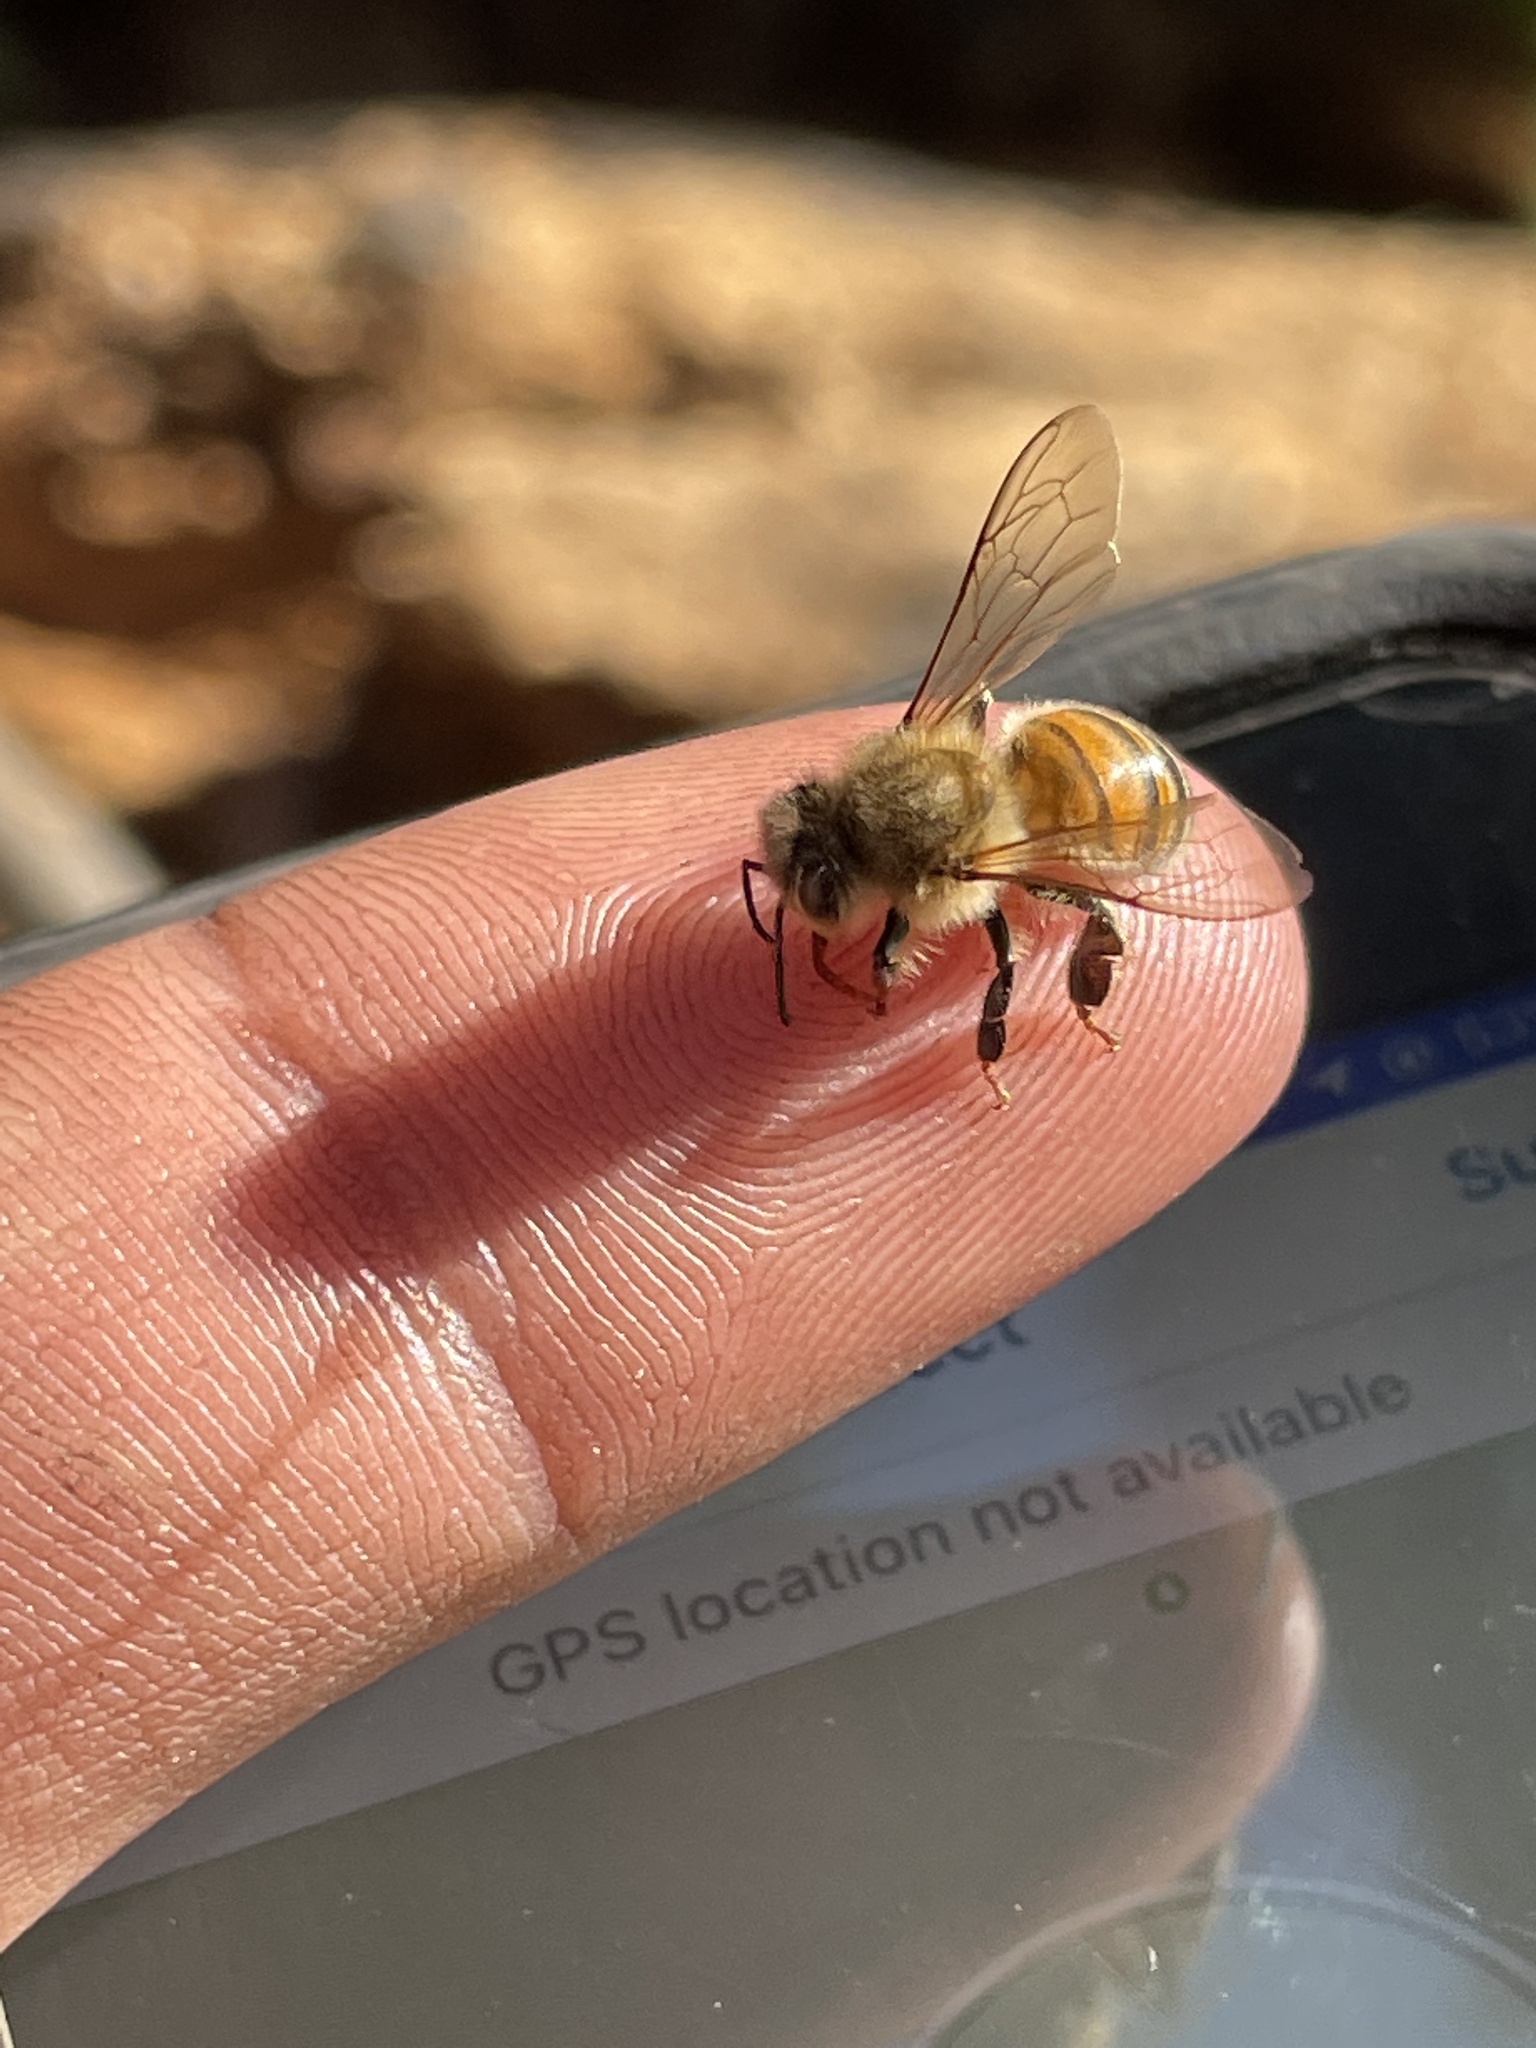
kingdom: Animalia
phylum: Arthropoda
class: Insecta
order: Hymenoptera
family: Apidae
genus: Apis
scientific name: Apis mellifera
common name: Honey bee
